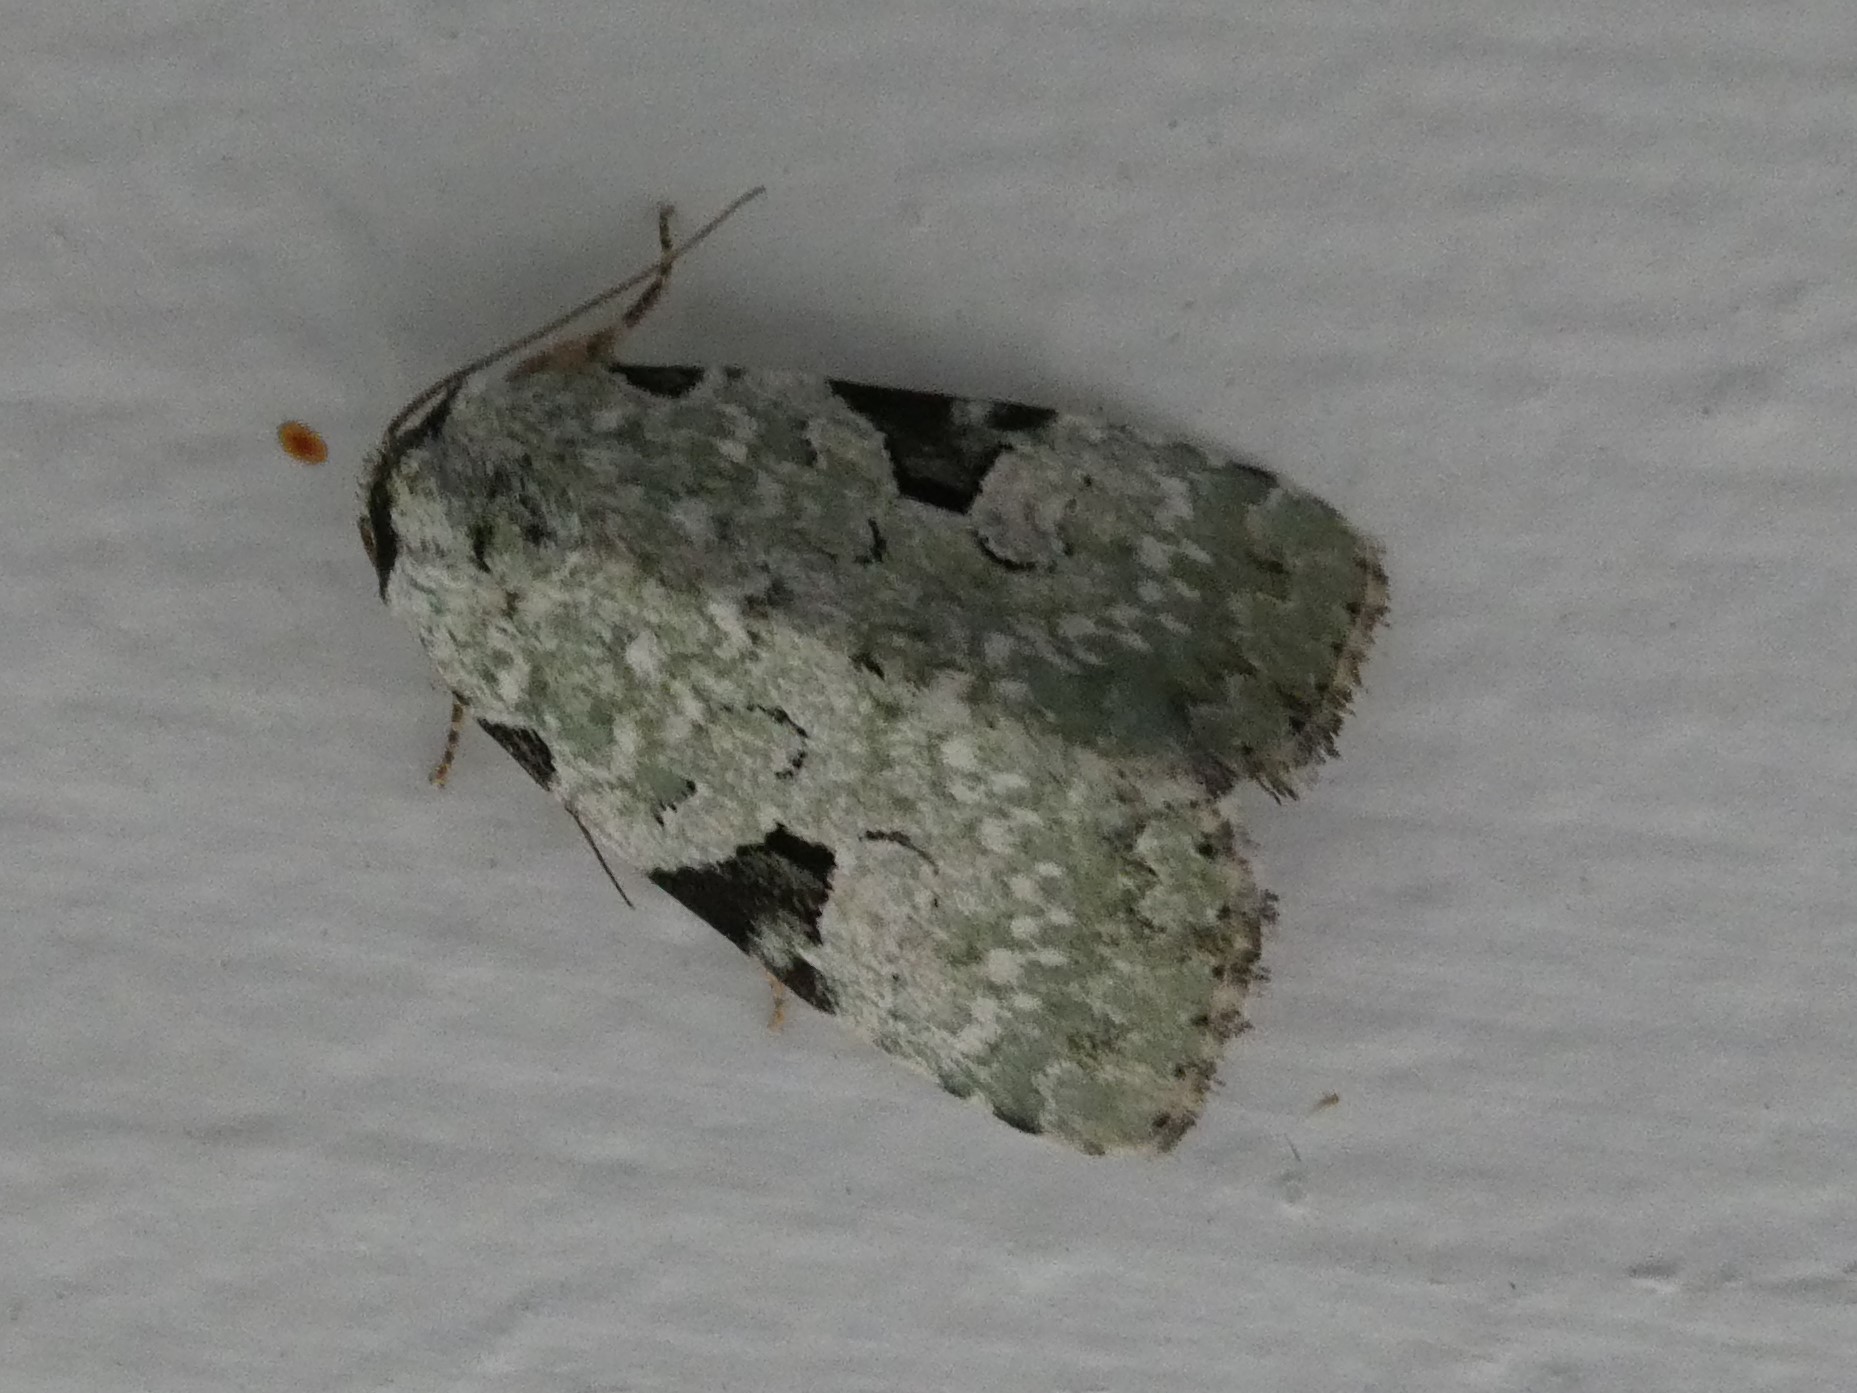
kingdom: Animalia
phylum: Arthropoda
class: Insecta
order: Lepidoptera
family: Noctuidae
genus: Leuconycta
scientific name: Leuconycta diphteroides
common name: Green leuconycta moth
